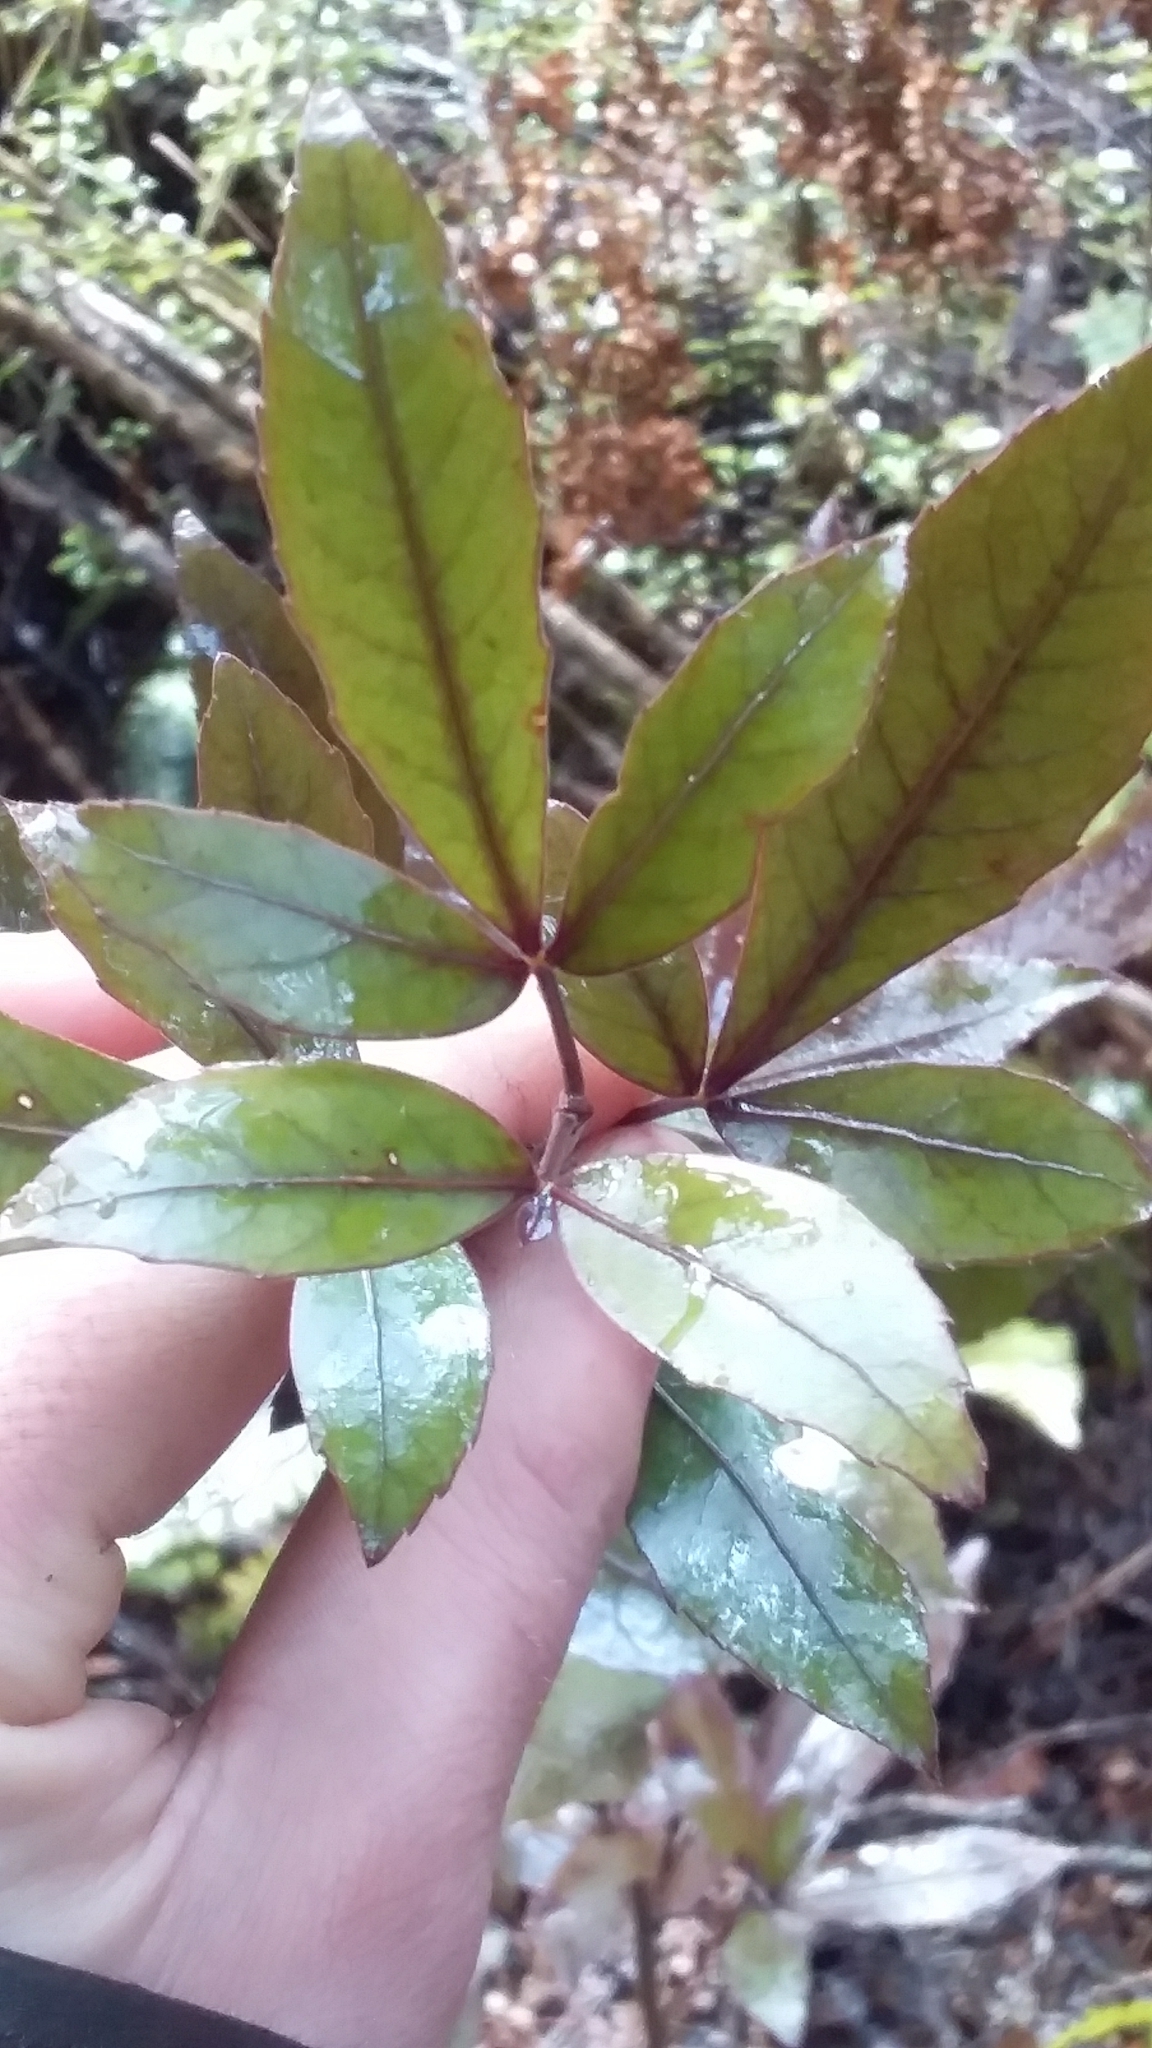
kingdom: Plantae
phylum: Tracheophyta
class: Magnoliopsida
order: Apiales
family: Araliaceae
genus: Raukaua
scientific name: Raukaua simplex
